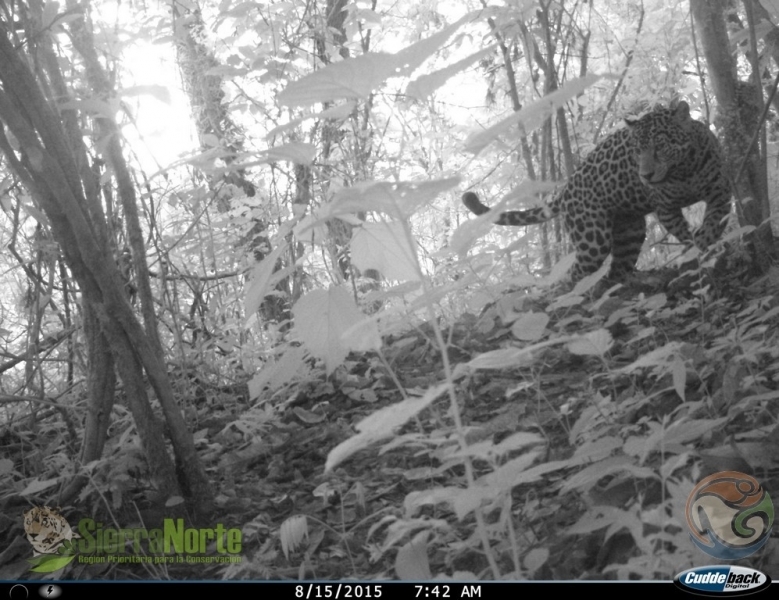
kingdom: Animalia
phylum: Chordata
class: Mammalia
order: Carnivora
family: Felidae
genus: Panthera
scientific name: Panthera onca
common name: Jaguar
